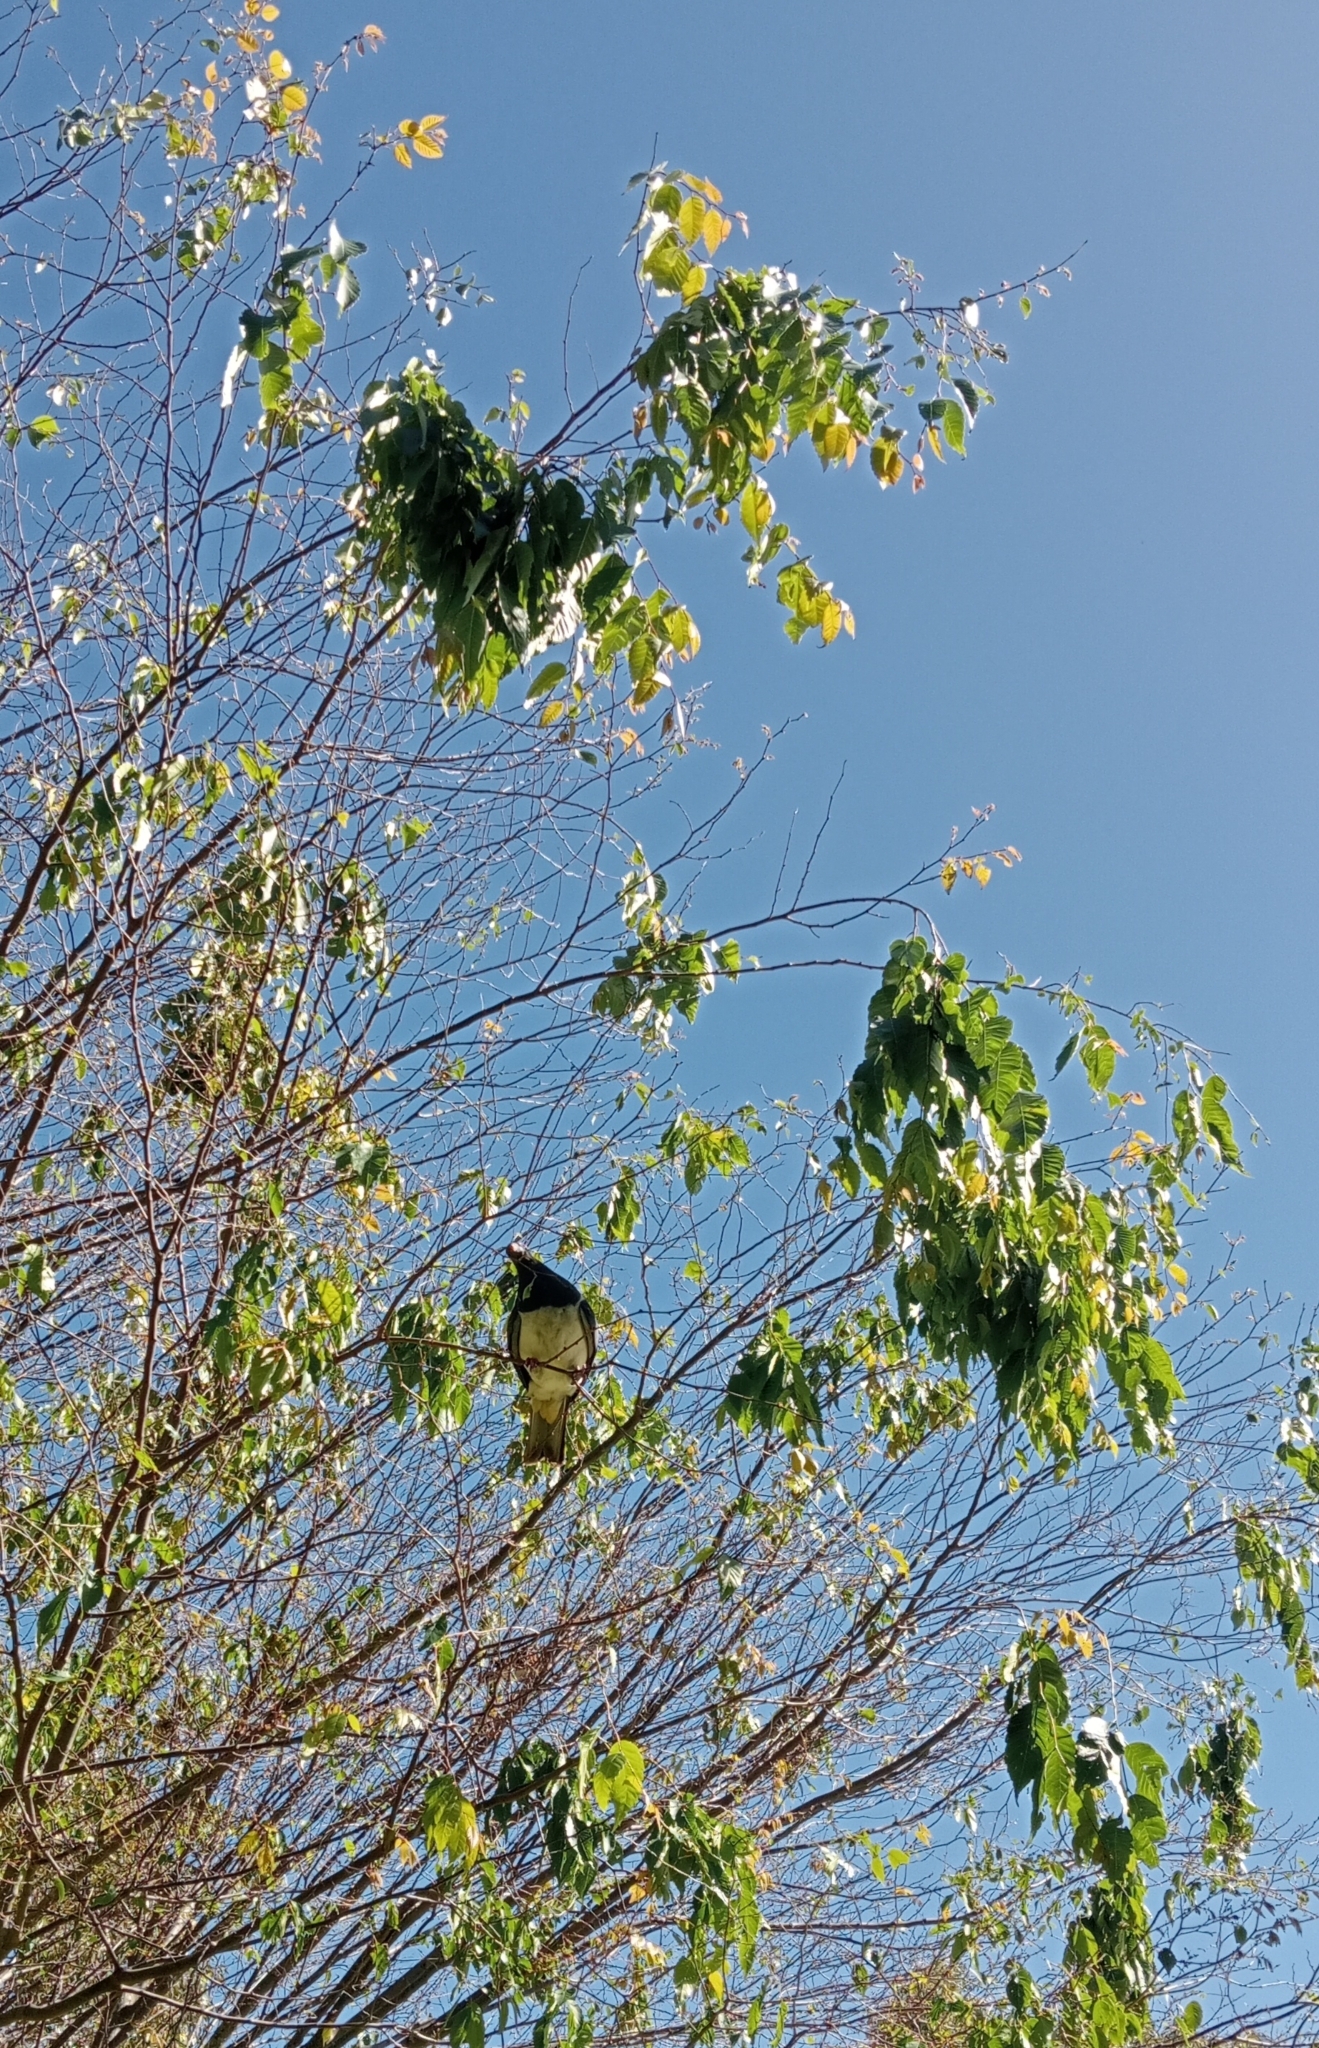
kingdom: Animalia
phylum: Chordata
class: Aves
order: Columbiformes
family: Columbidae
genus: Hemiphaga
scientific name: Hemiphaga novaeseelandiae
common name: New zealand pigeon
